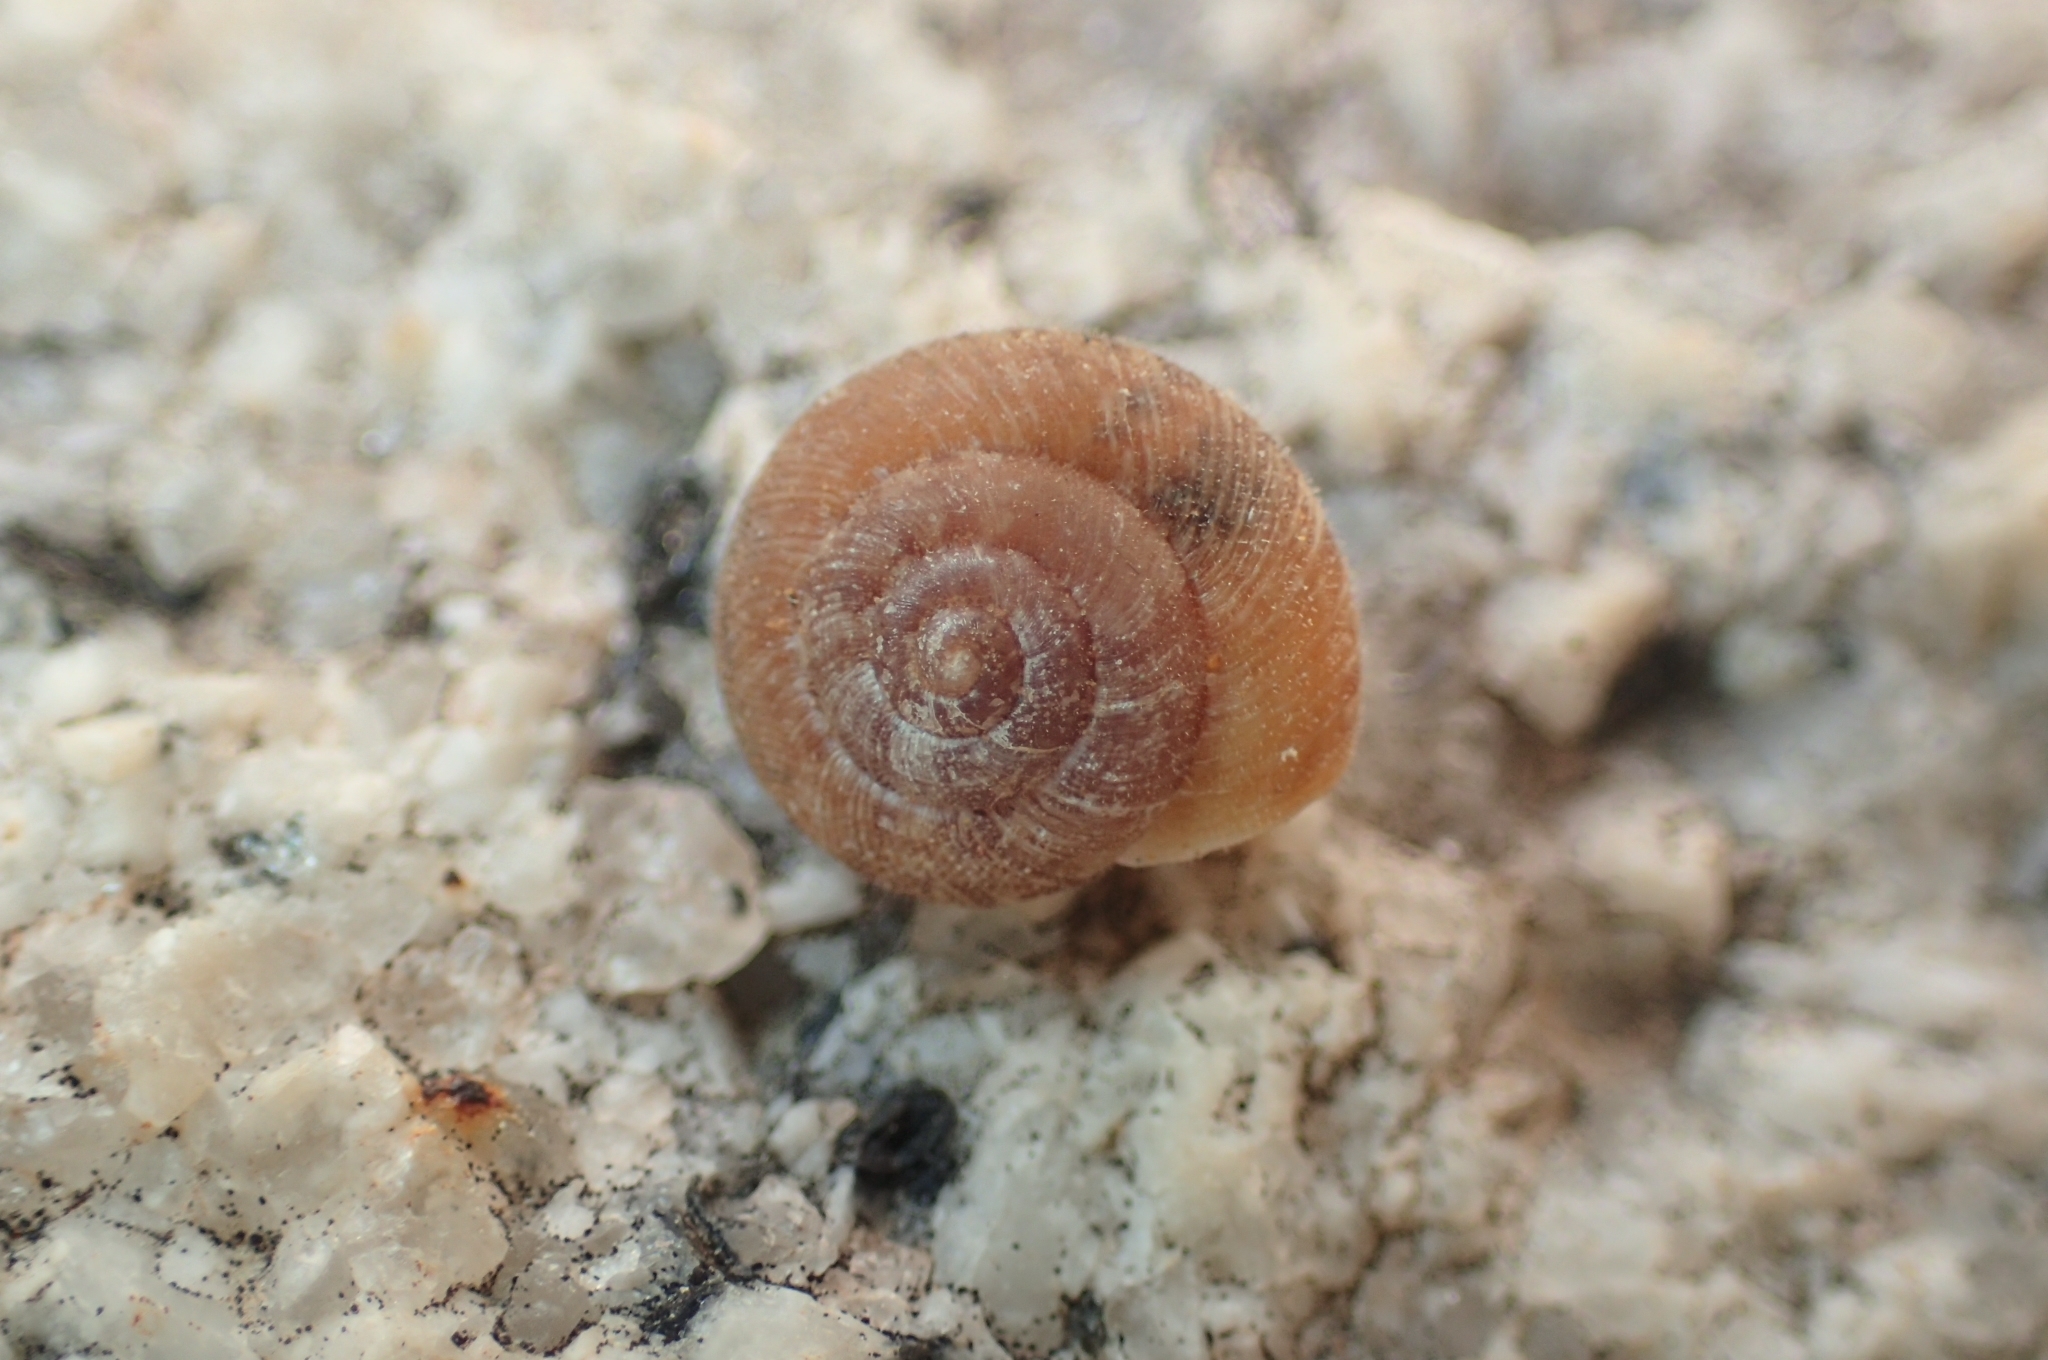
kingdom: Animalia
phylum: Mollusca
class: Gastropoda
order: Stylommatophora
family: Geomitridae
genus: Microxeromagna
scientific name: Microxeromagna lowei
